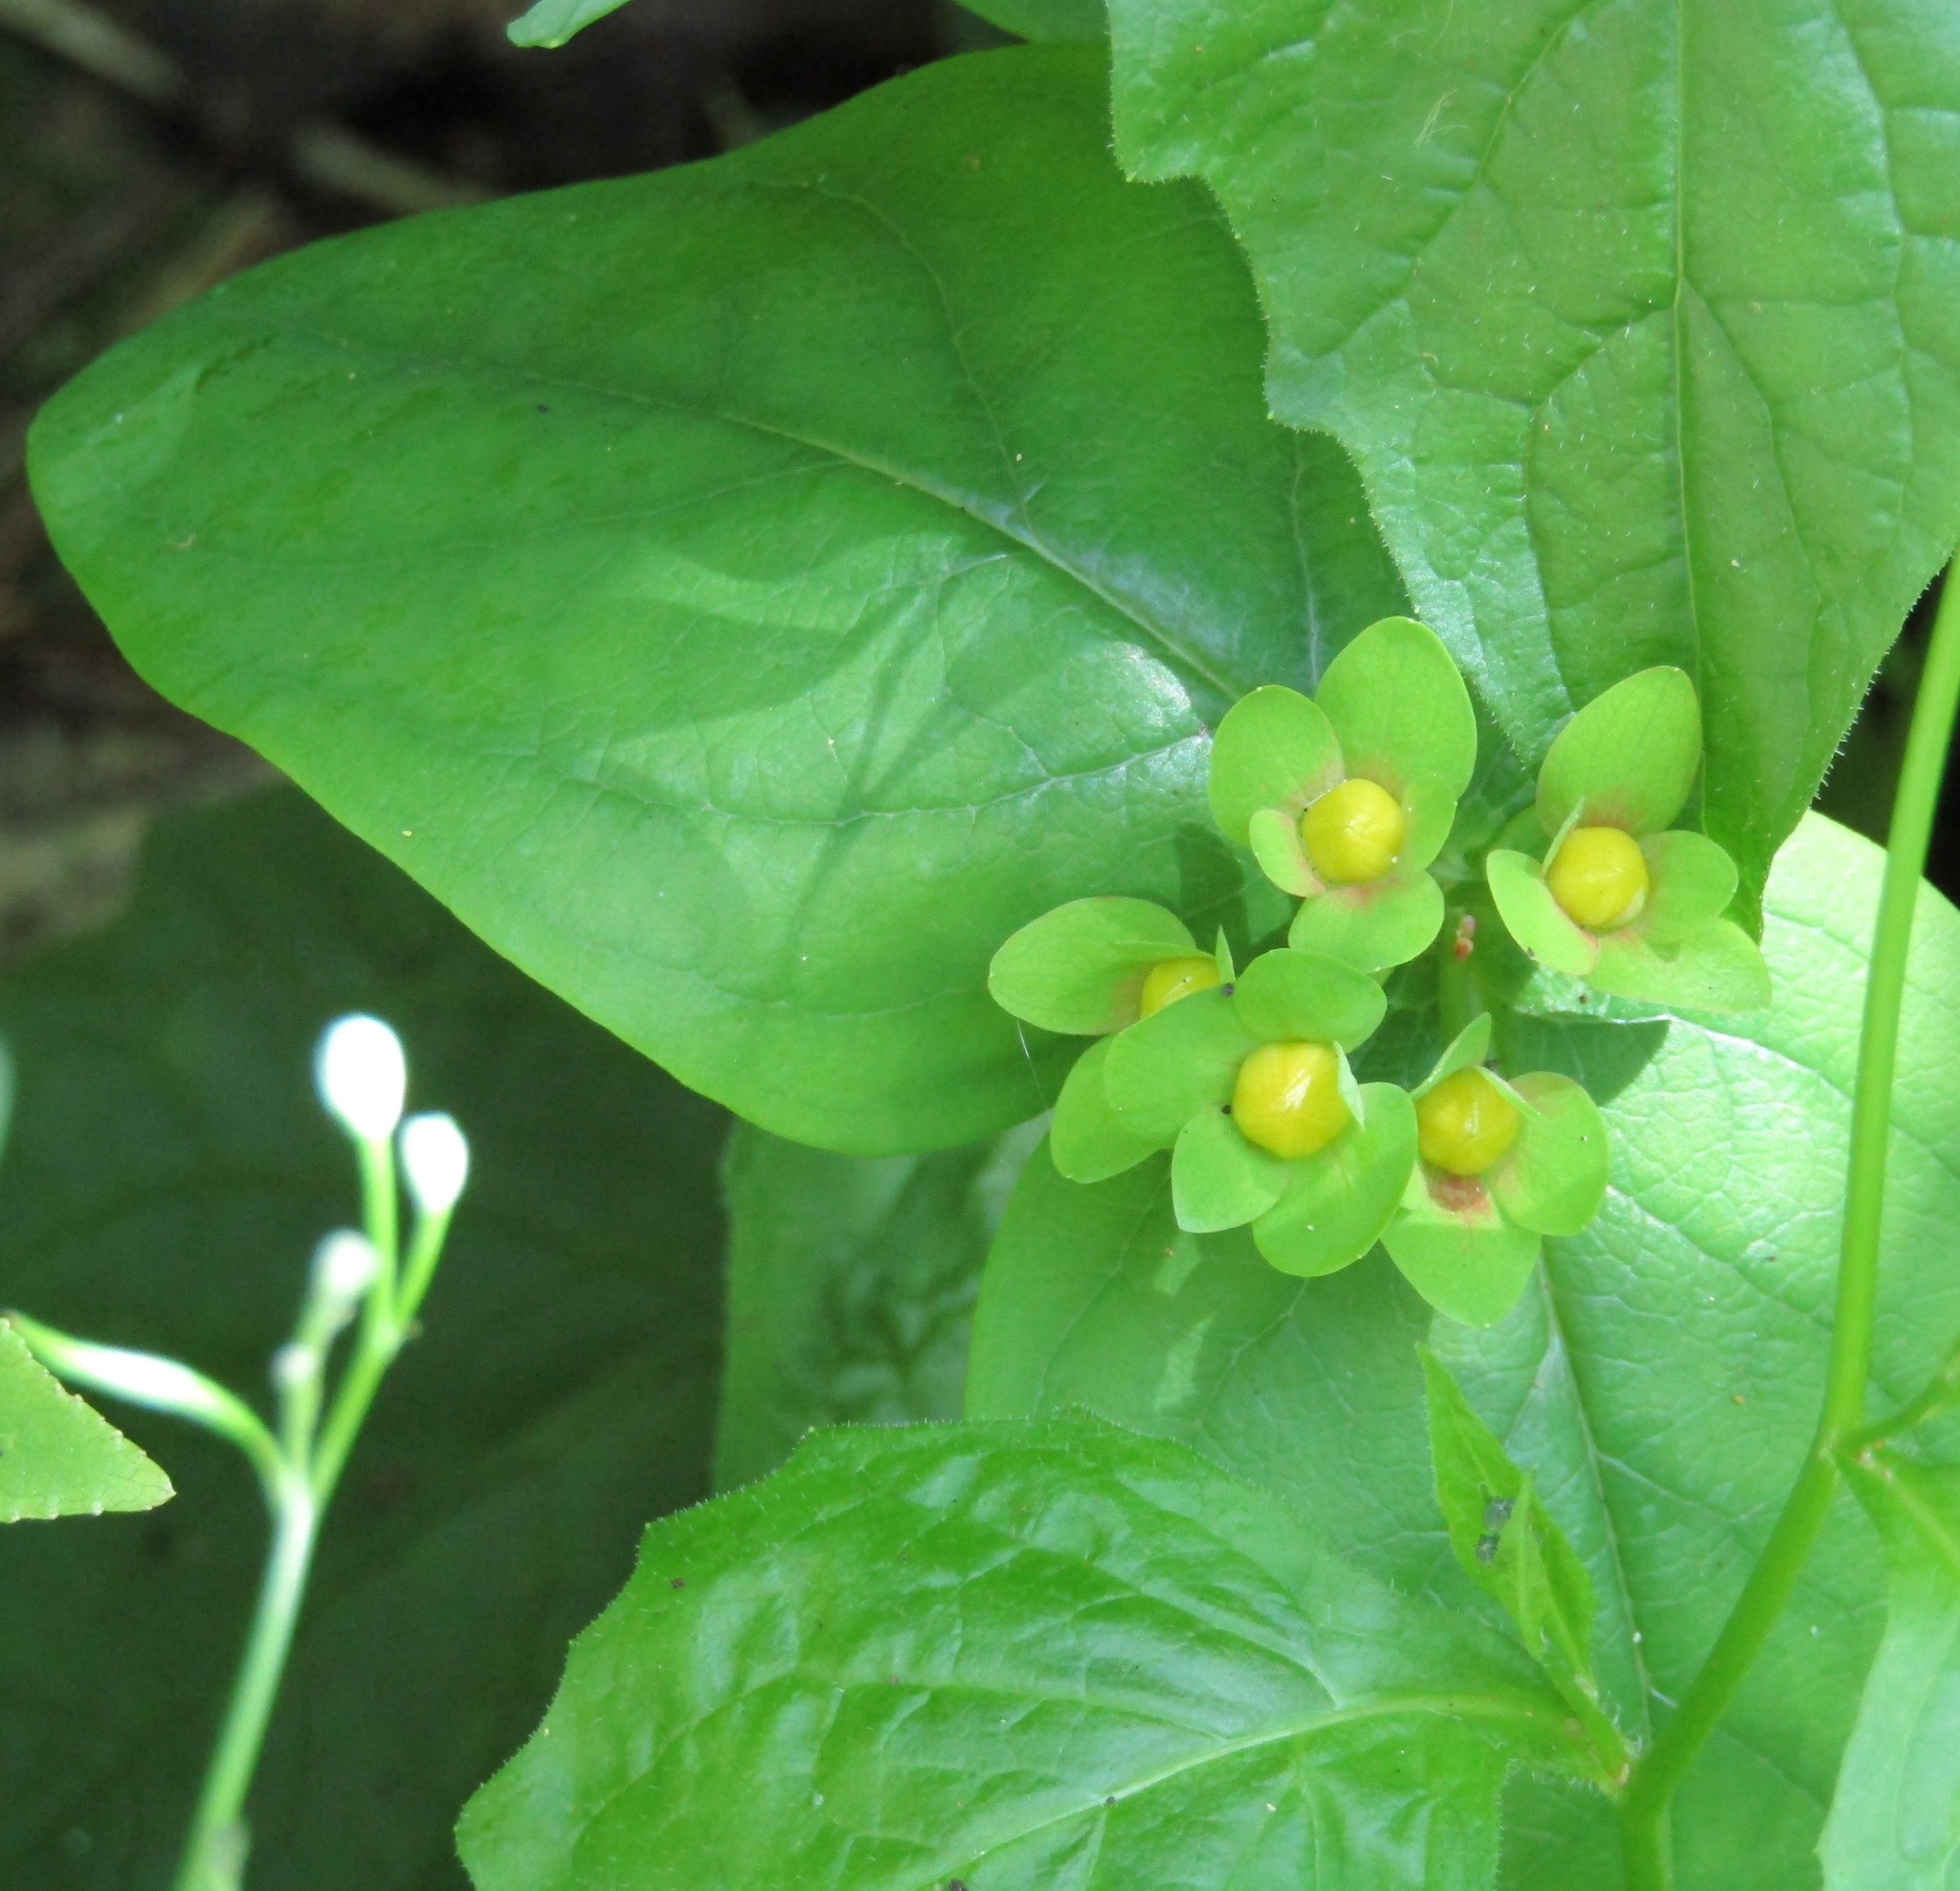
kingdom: Plantae
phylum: Tracheophyta
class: Magnoliopsida
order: Malpighiales
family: Hypericaceae
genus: Hypericum
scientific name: Hypericum androsaemum
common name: Sweet-amber
